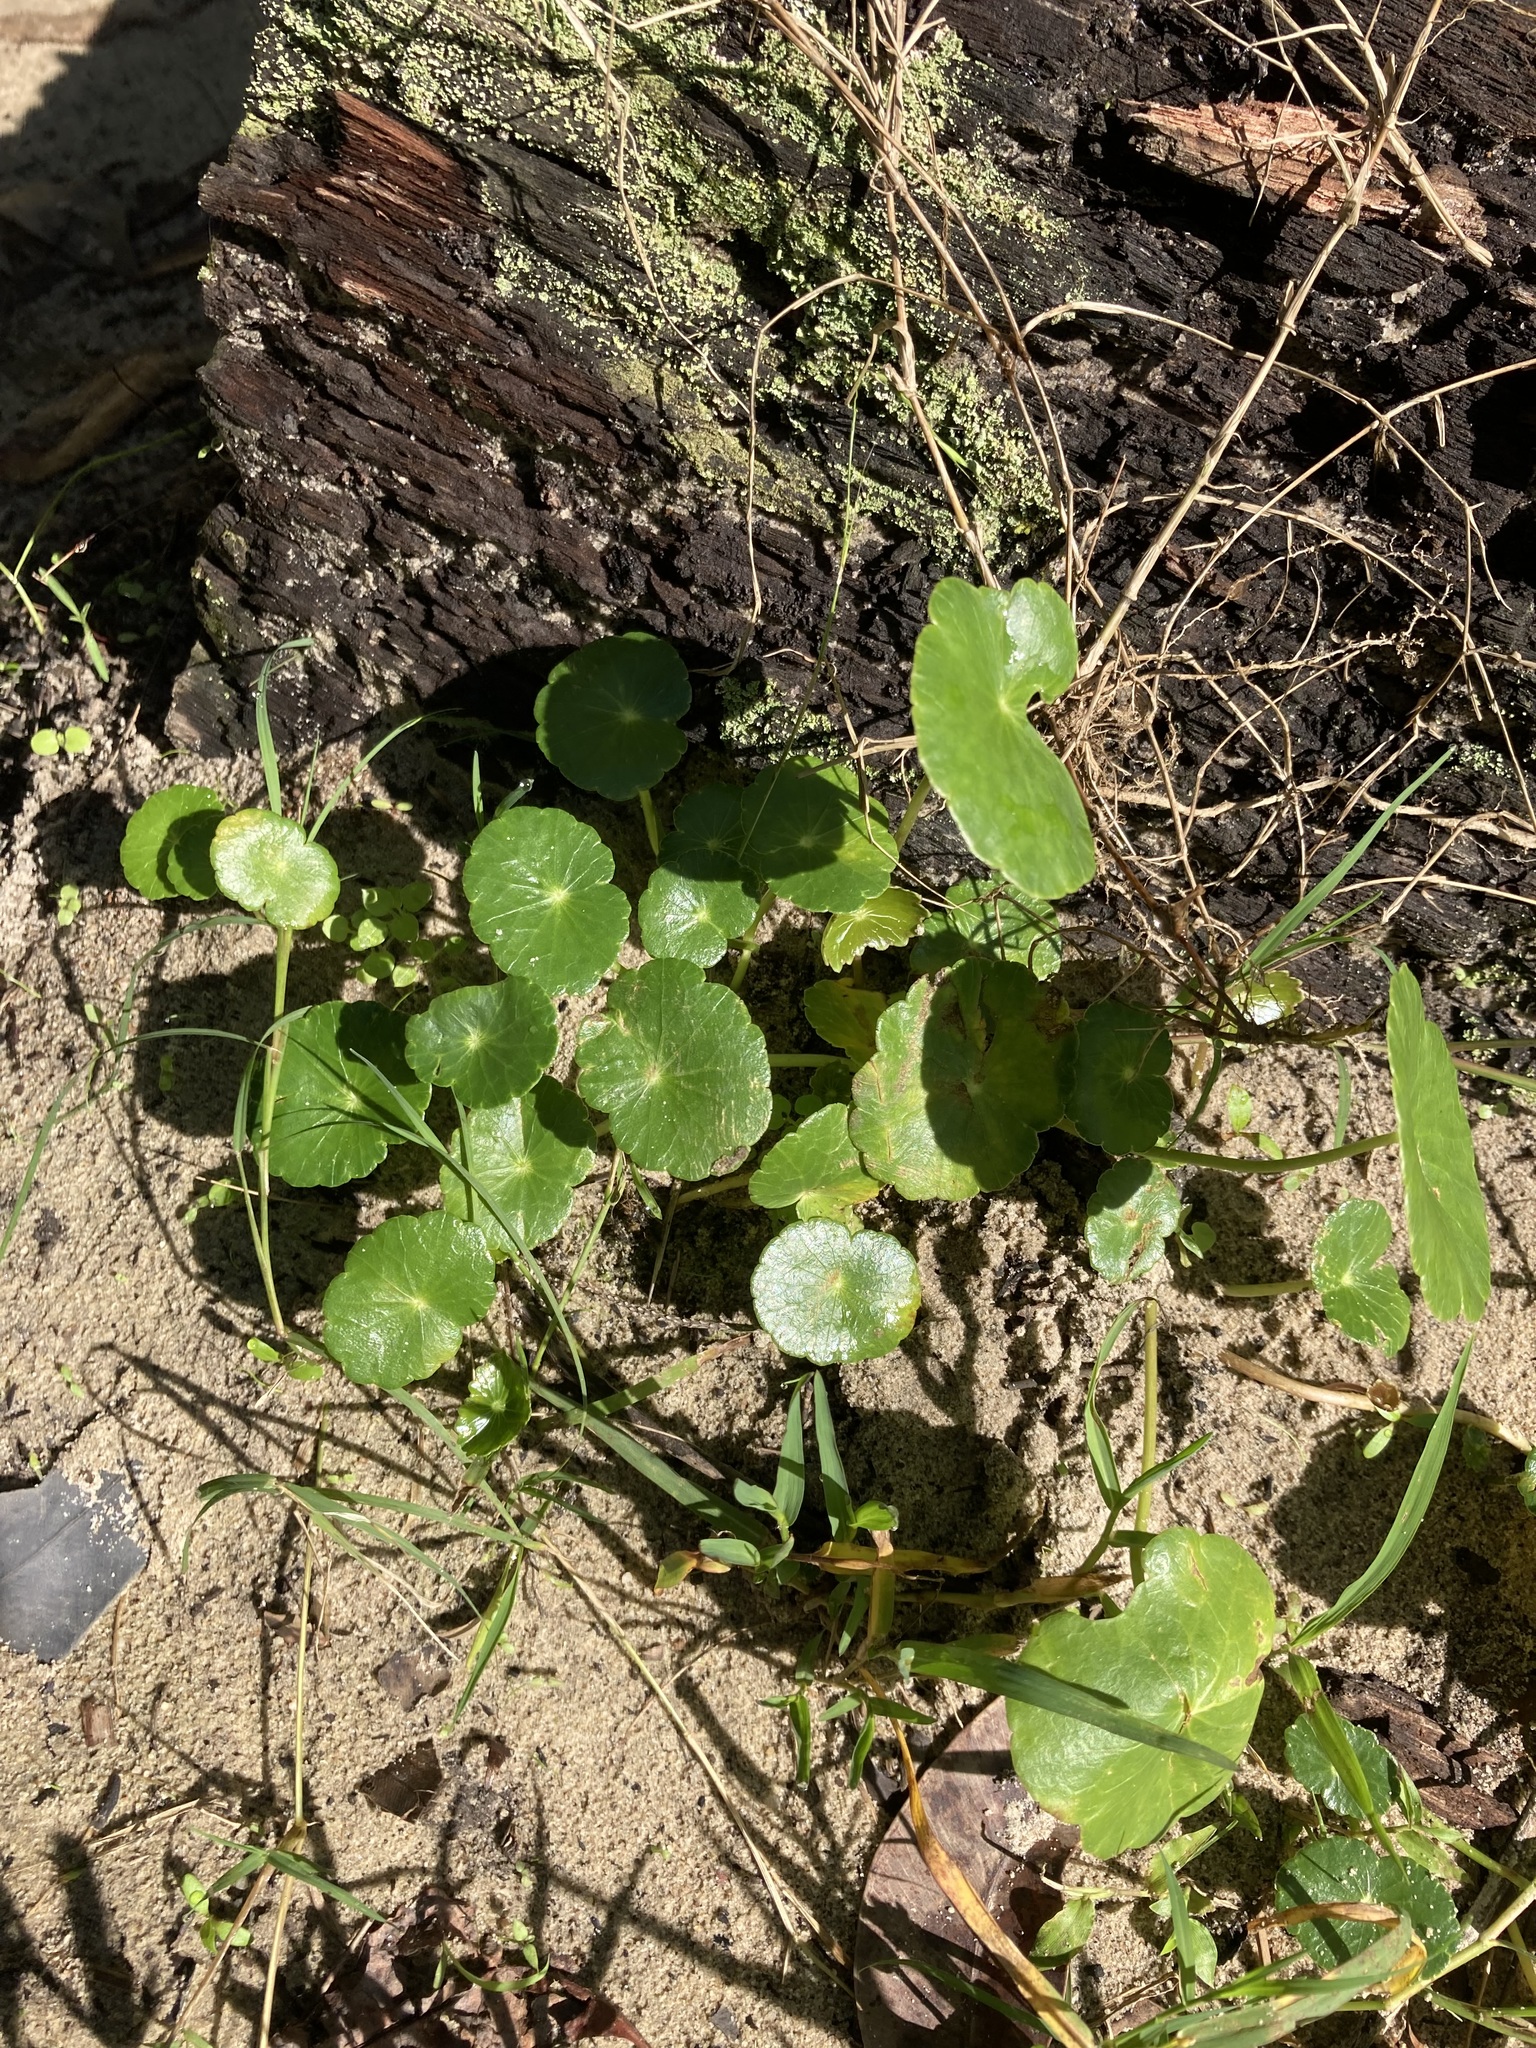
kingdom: Plantae
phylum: Tracheophyta
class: Magnoliopsida
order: Apiales
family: Araliaceae
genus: Hydrocotyle
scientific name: Hydrocotyle bonariensis
